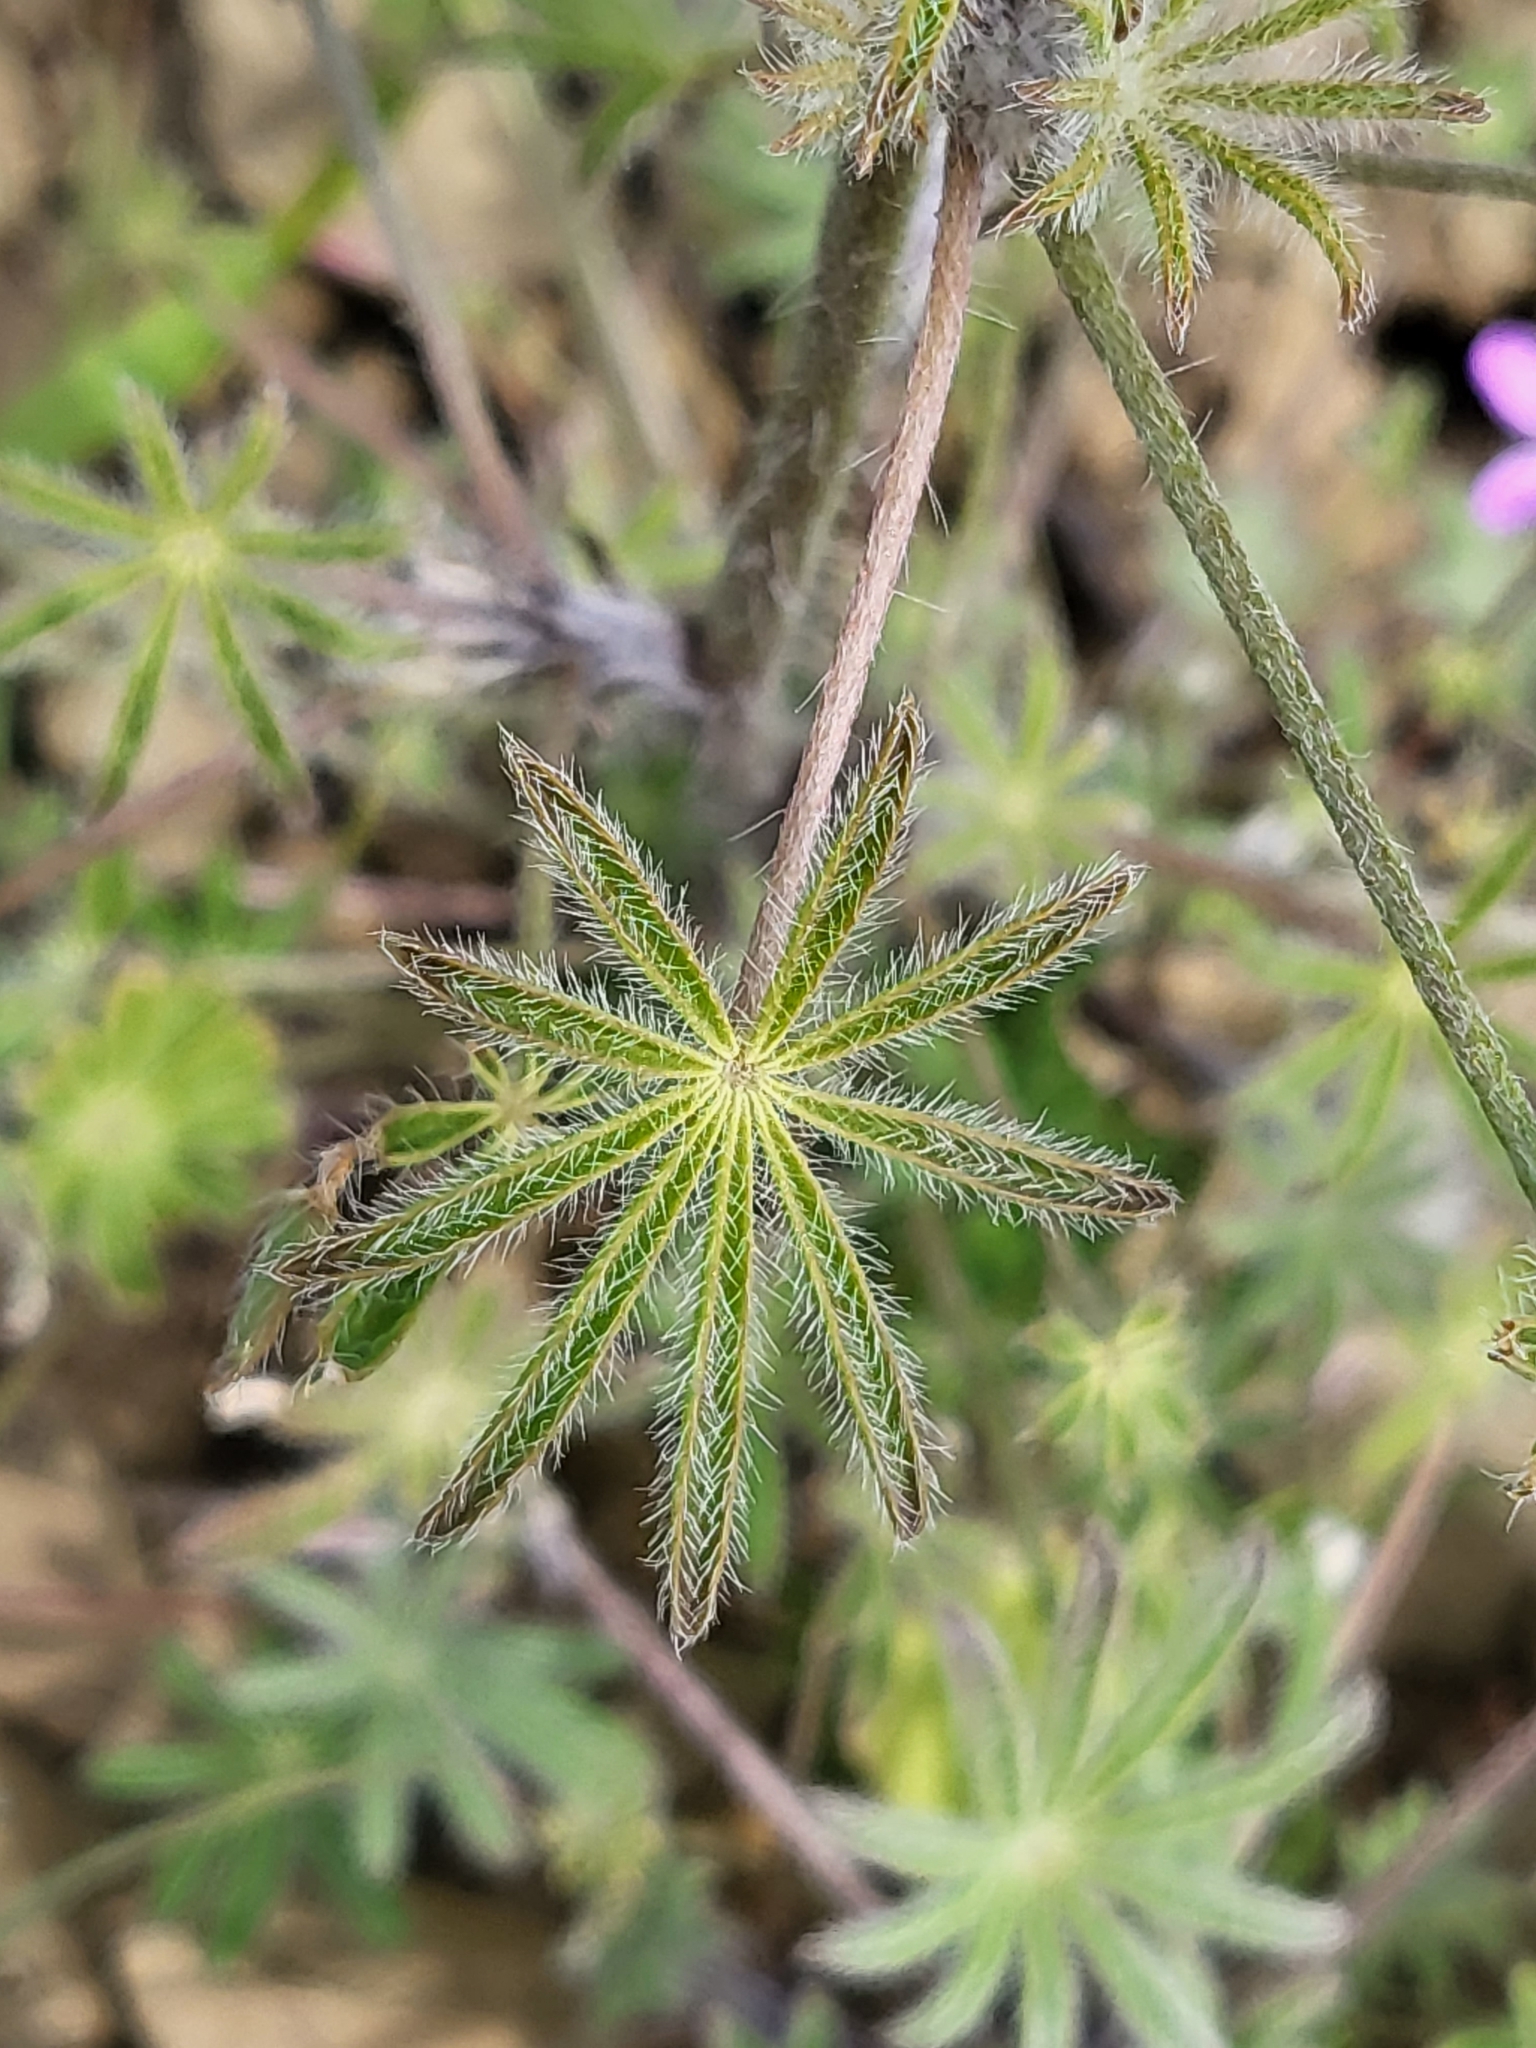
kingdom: Plantae
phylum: Tracheophyta
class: Magnoliopsida
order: Fabales
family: Fabaceae
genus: Lupinus
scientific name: Lupinus sparsiflorus
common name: Coulter's lupine
